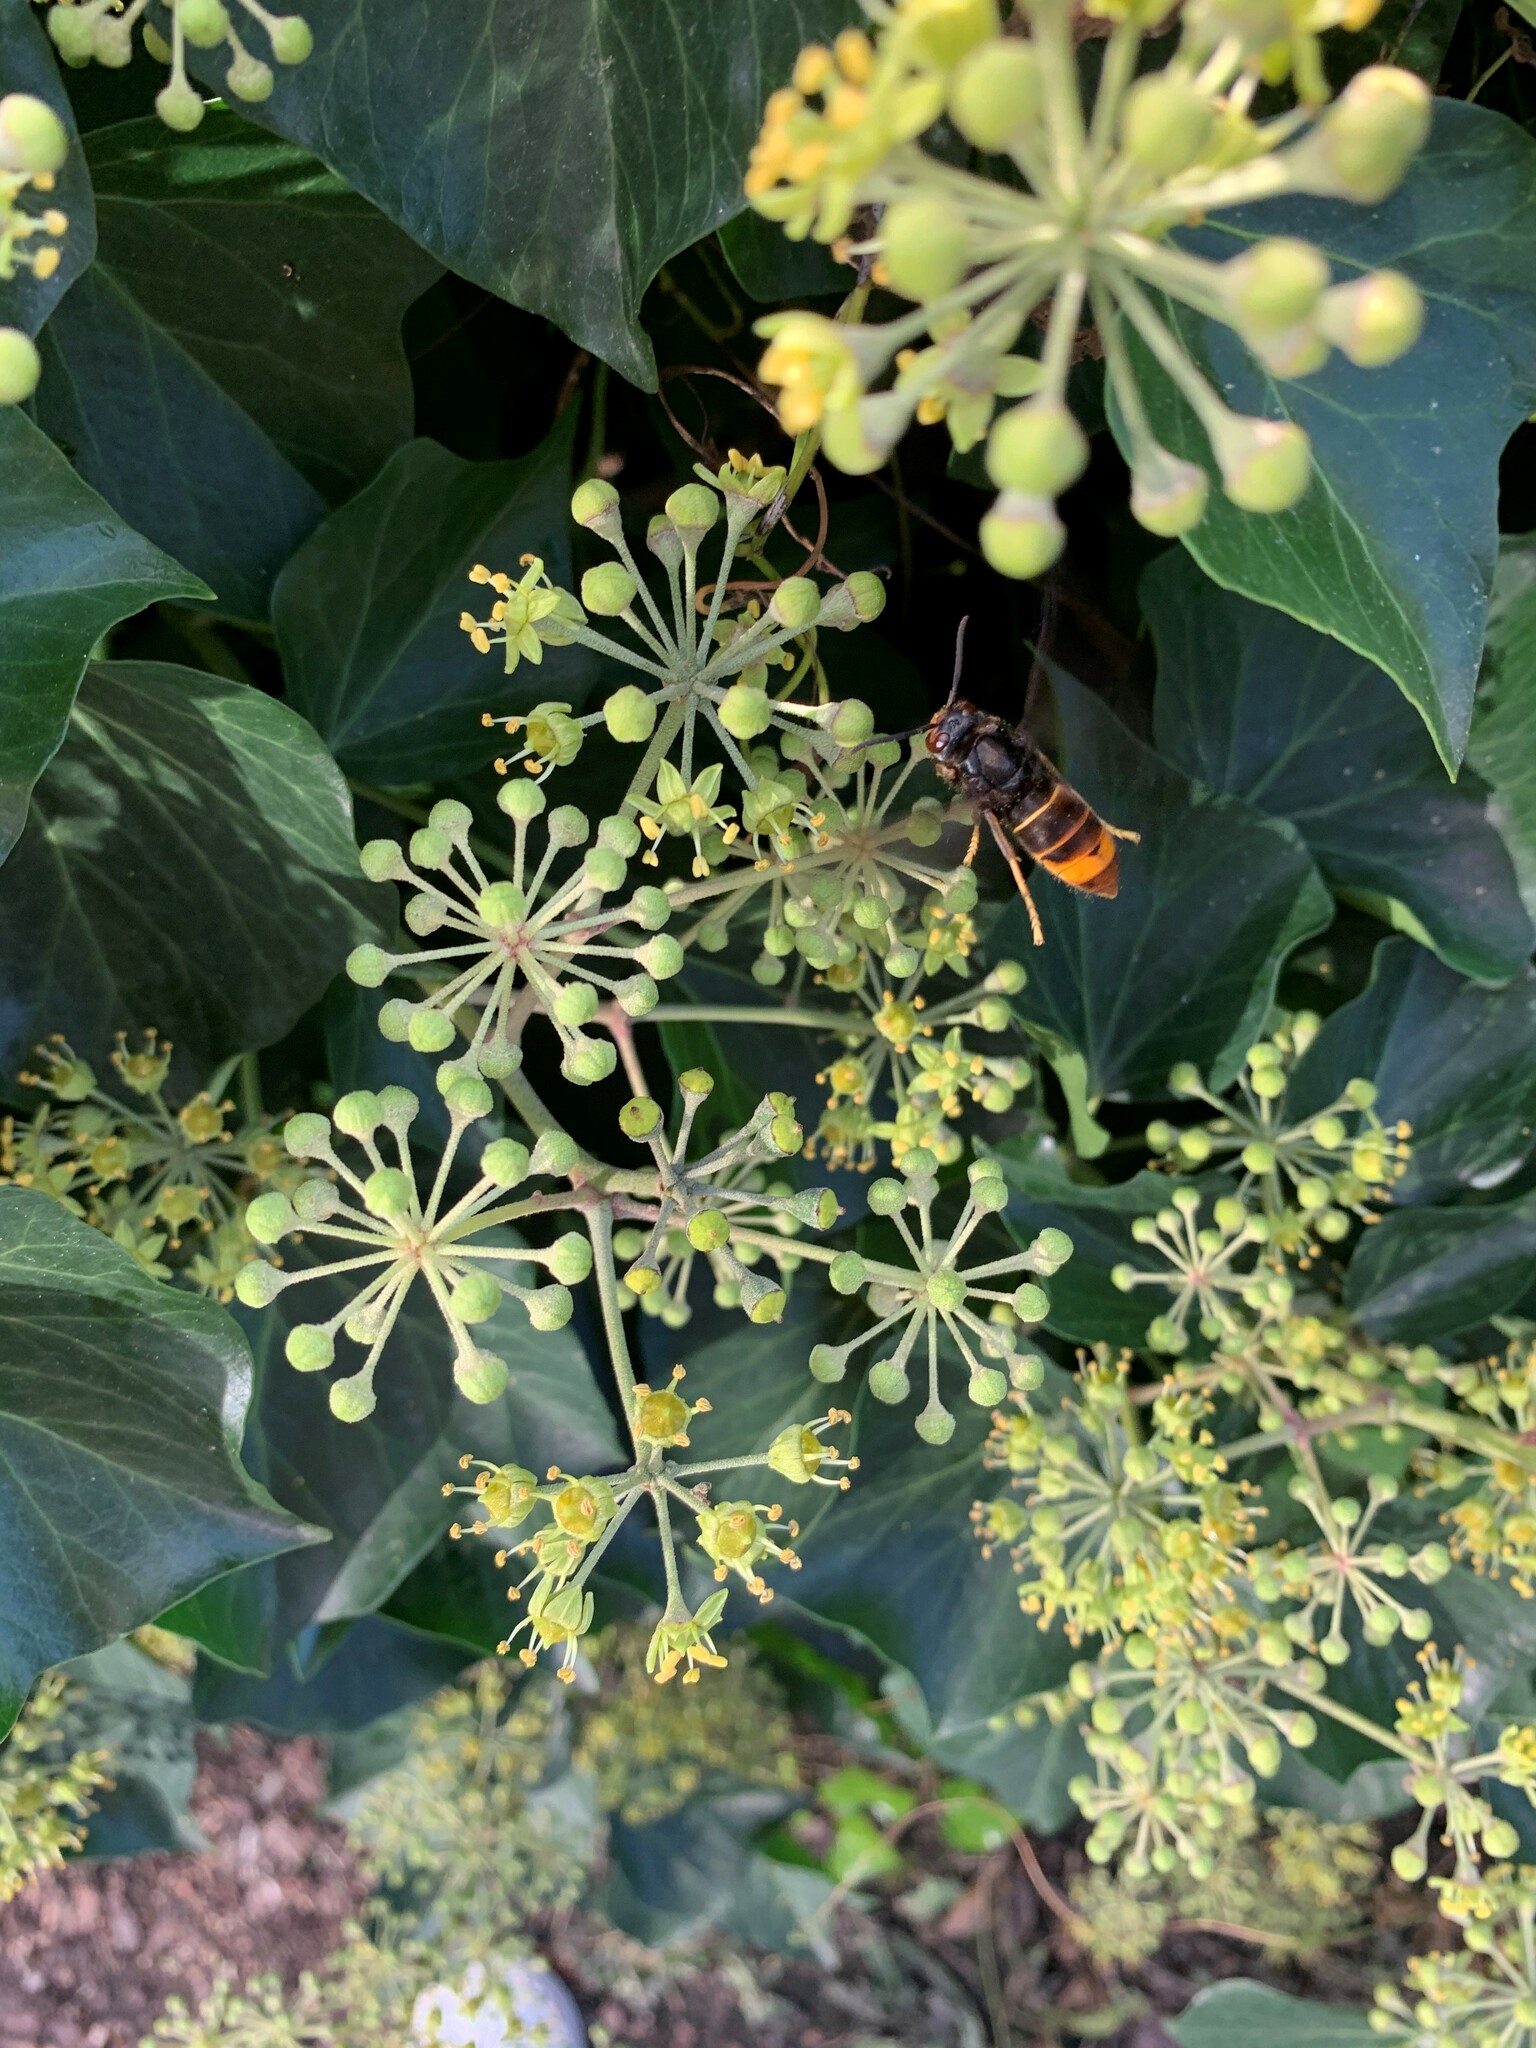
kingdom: Animalia
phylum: Arthropoda
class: Insecta
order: Hymenoptera
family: Vespidae
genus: Vespa
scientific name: Vespa velutina
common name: Asian hornet
